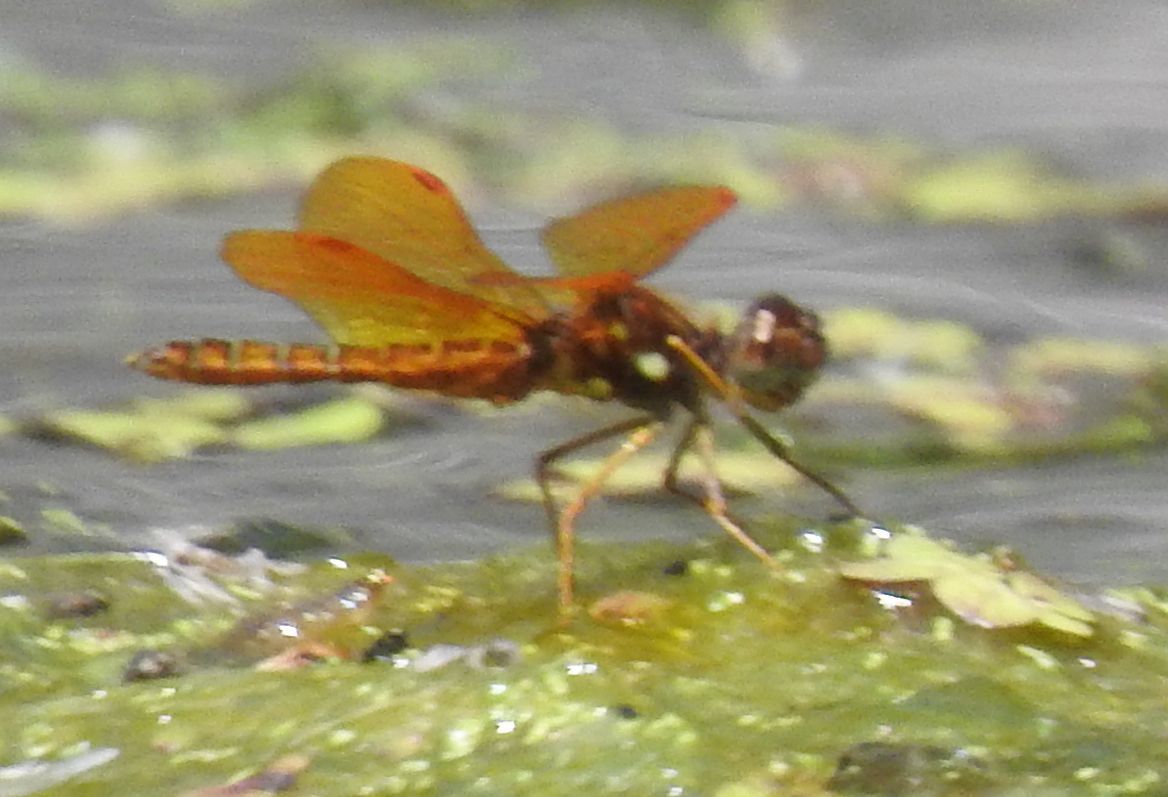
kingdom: Animalia
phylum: Arthropoda
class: Insecta
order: Odonata
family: Libellulidae
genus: Perithemis
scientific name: Perithemis tenera
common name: Eastern amberwing
